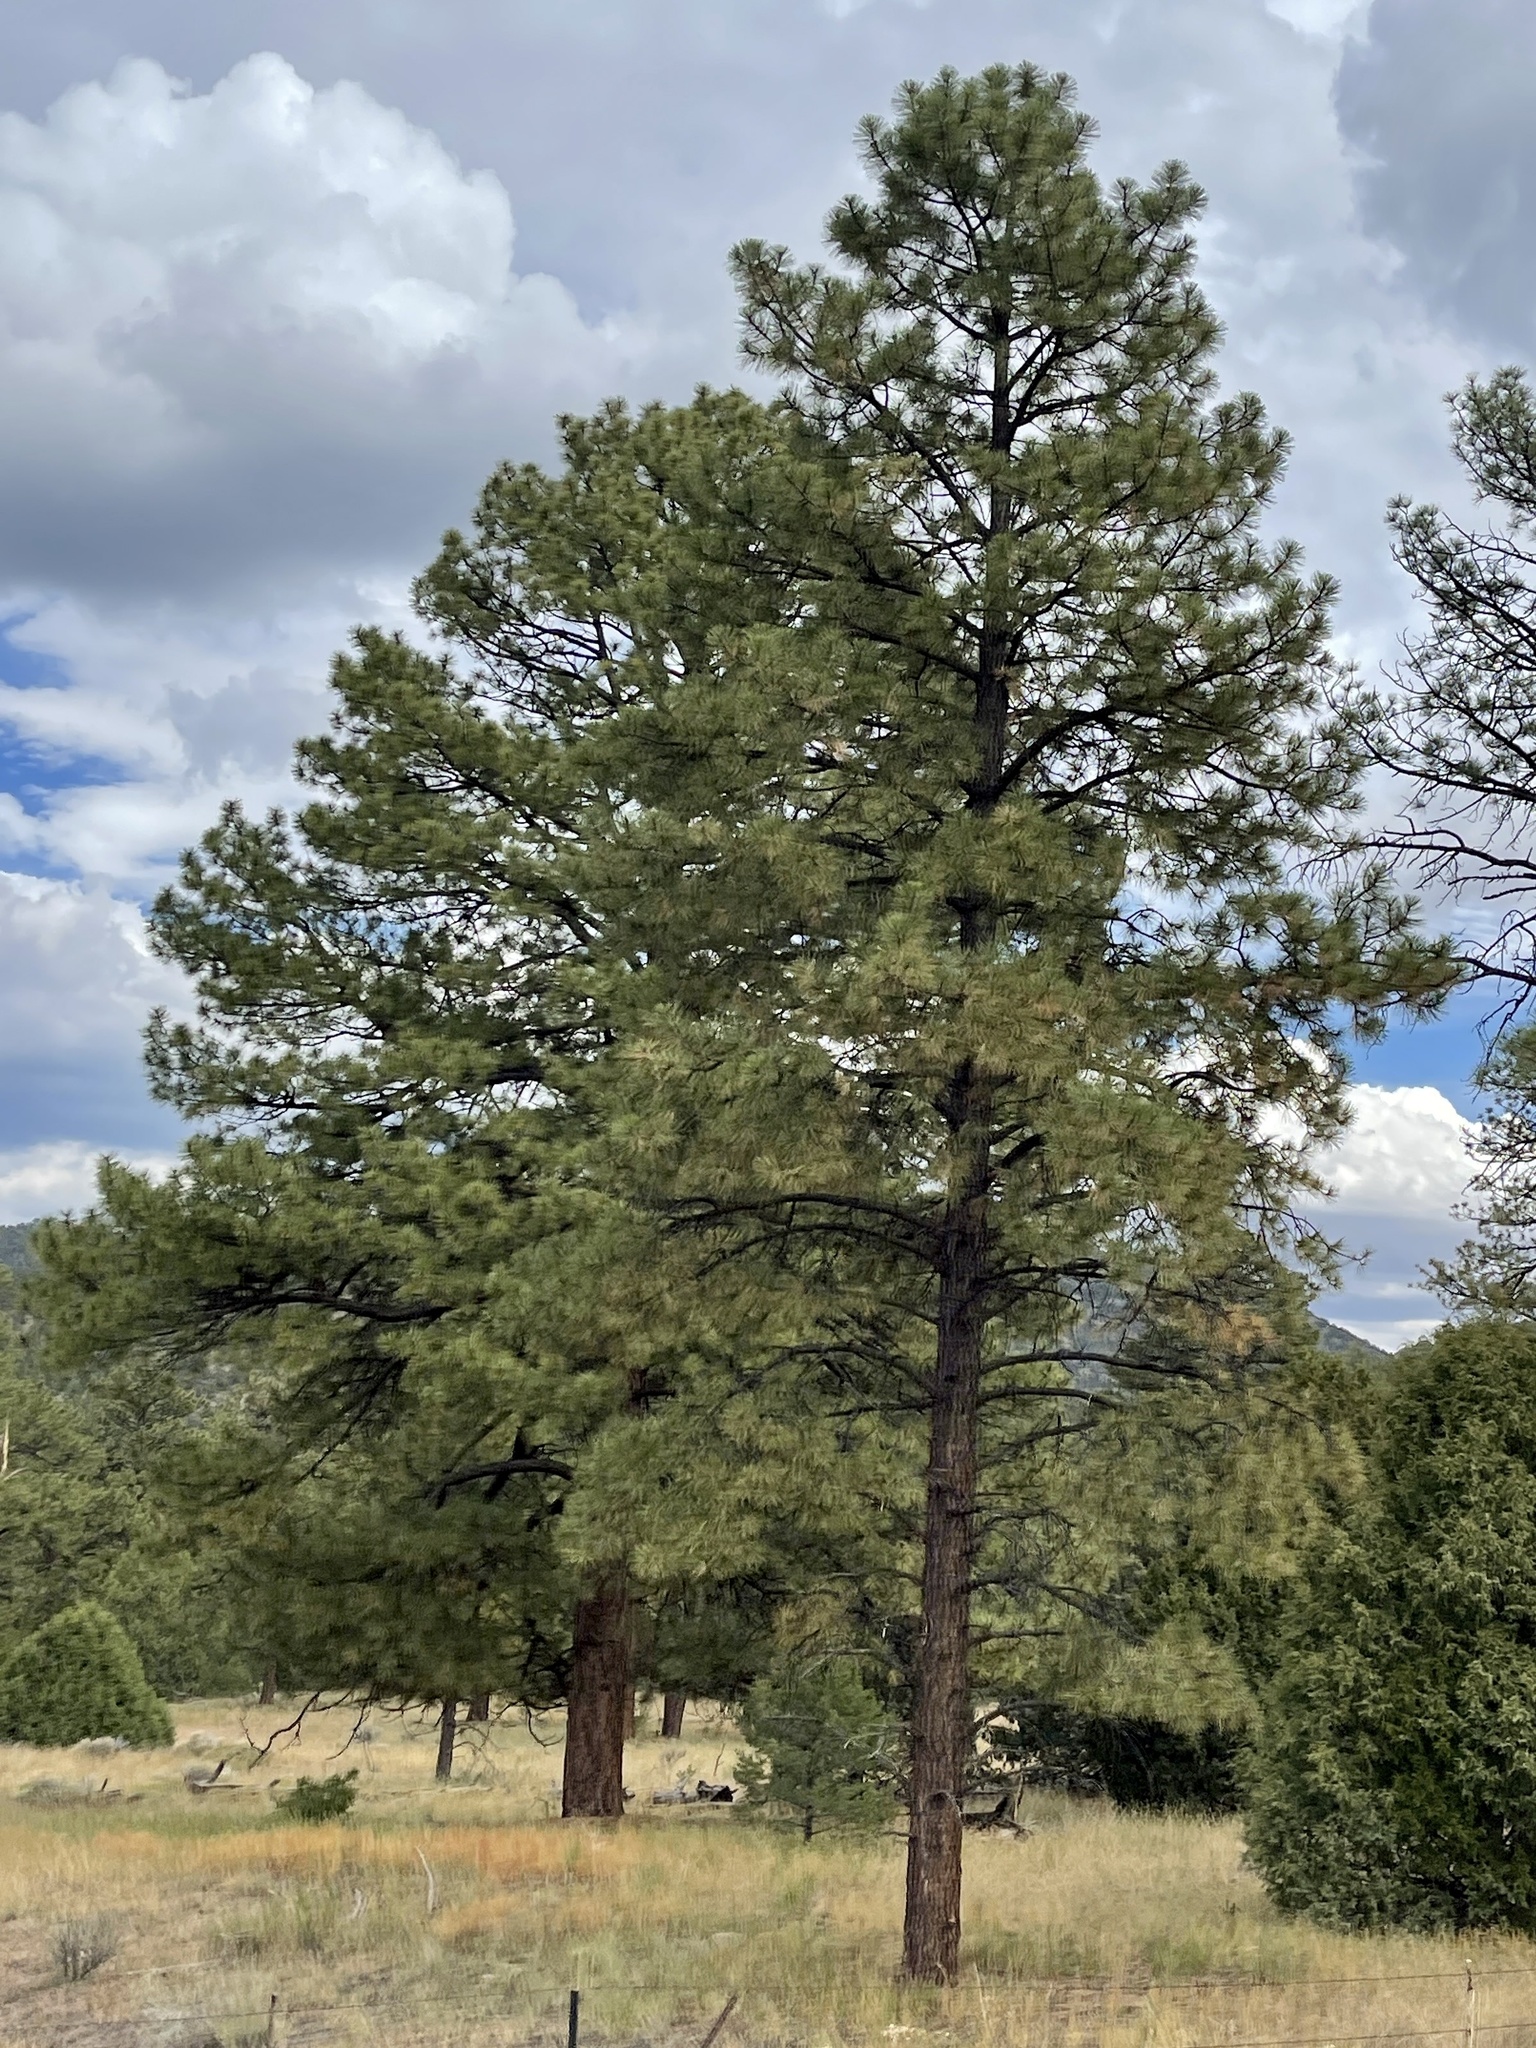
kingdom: Plantae
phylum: Tracheophyta
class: Pinopsida
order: Pinales
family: Pinaceae
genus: Pinus
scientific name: Pinus ponderosa
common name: Western yellow-pine
